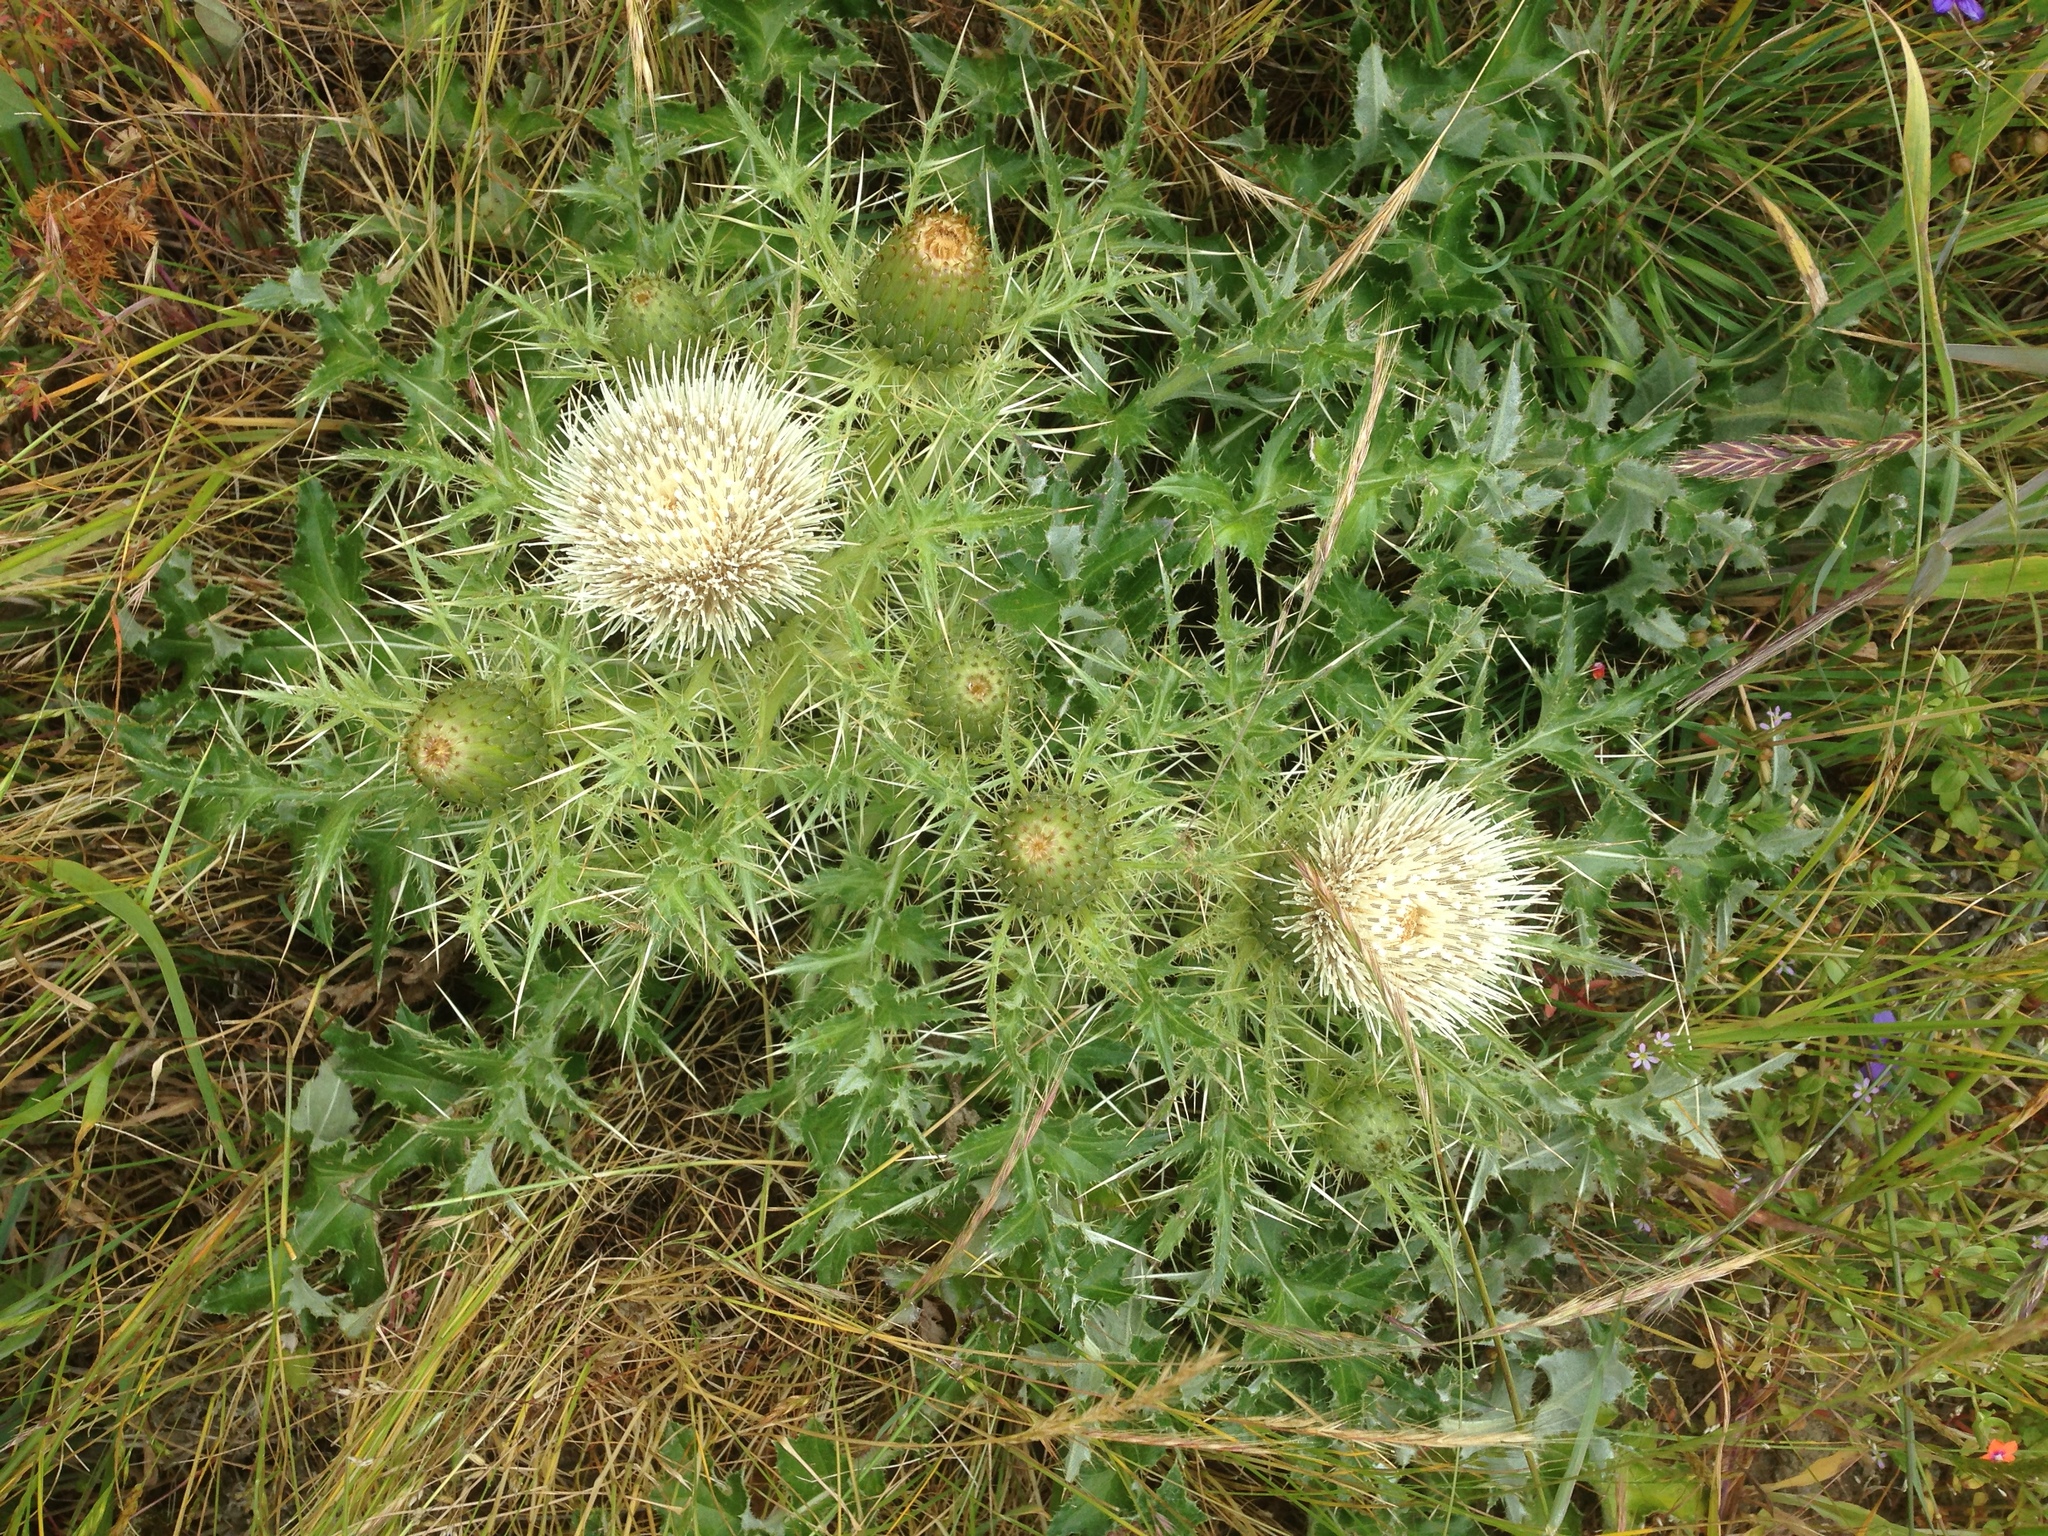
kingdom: Plantae
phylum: Tracheophyta
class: Magnoliopsida
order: Asterales
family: Asteraceae
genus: Cirsium
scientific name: Cirsium quercetorum
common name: Alameda county thistle
